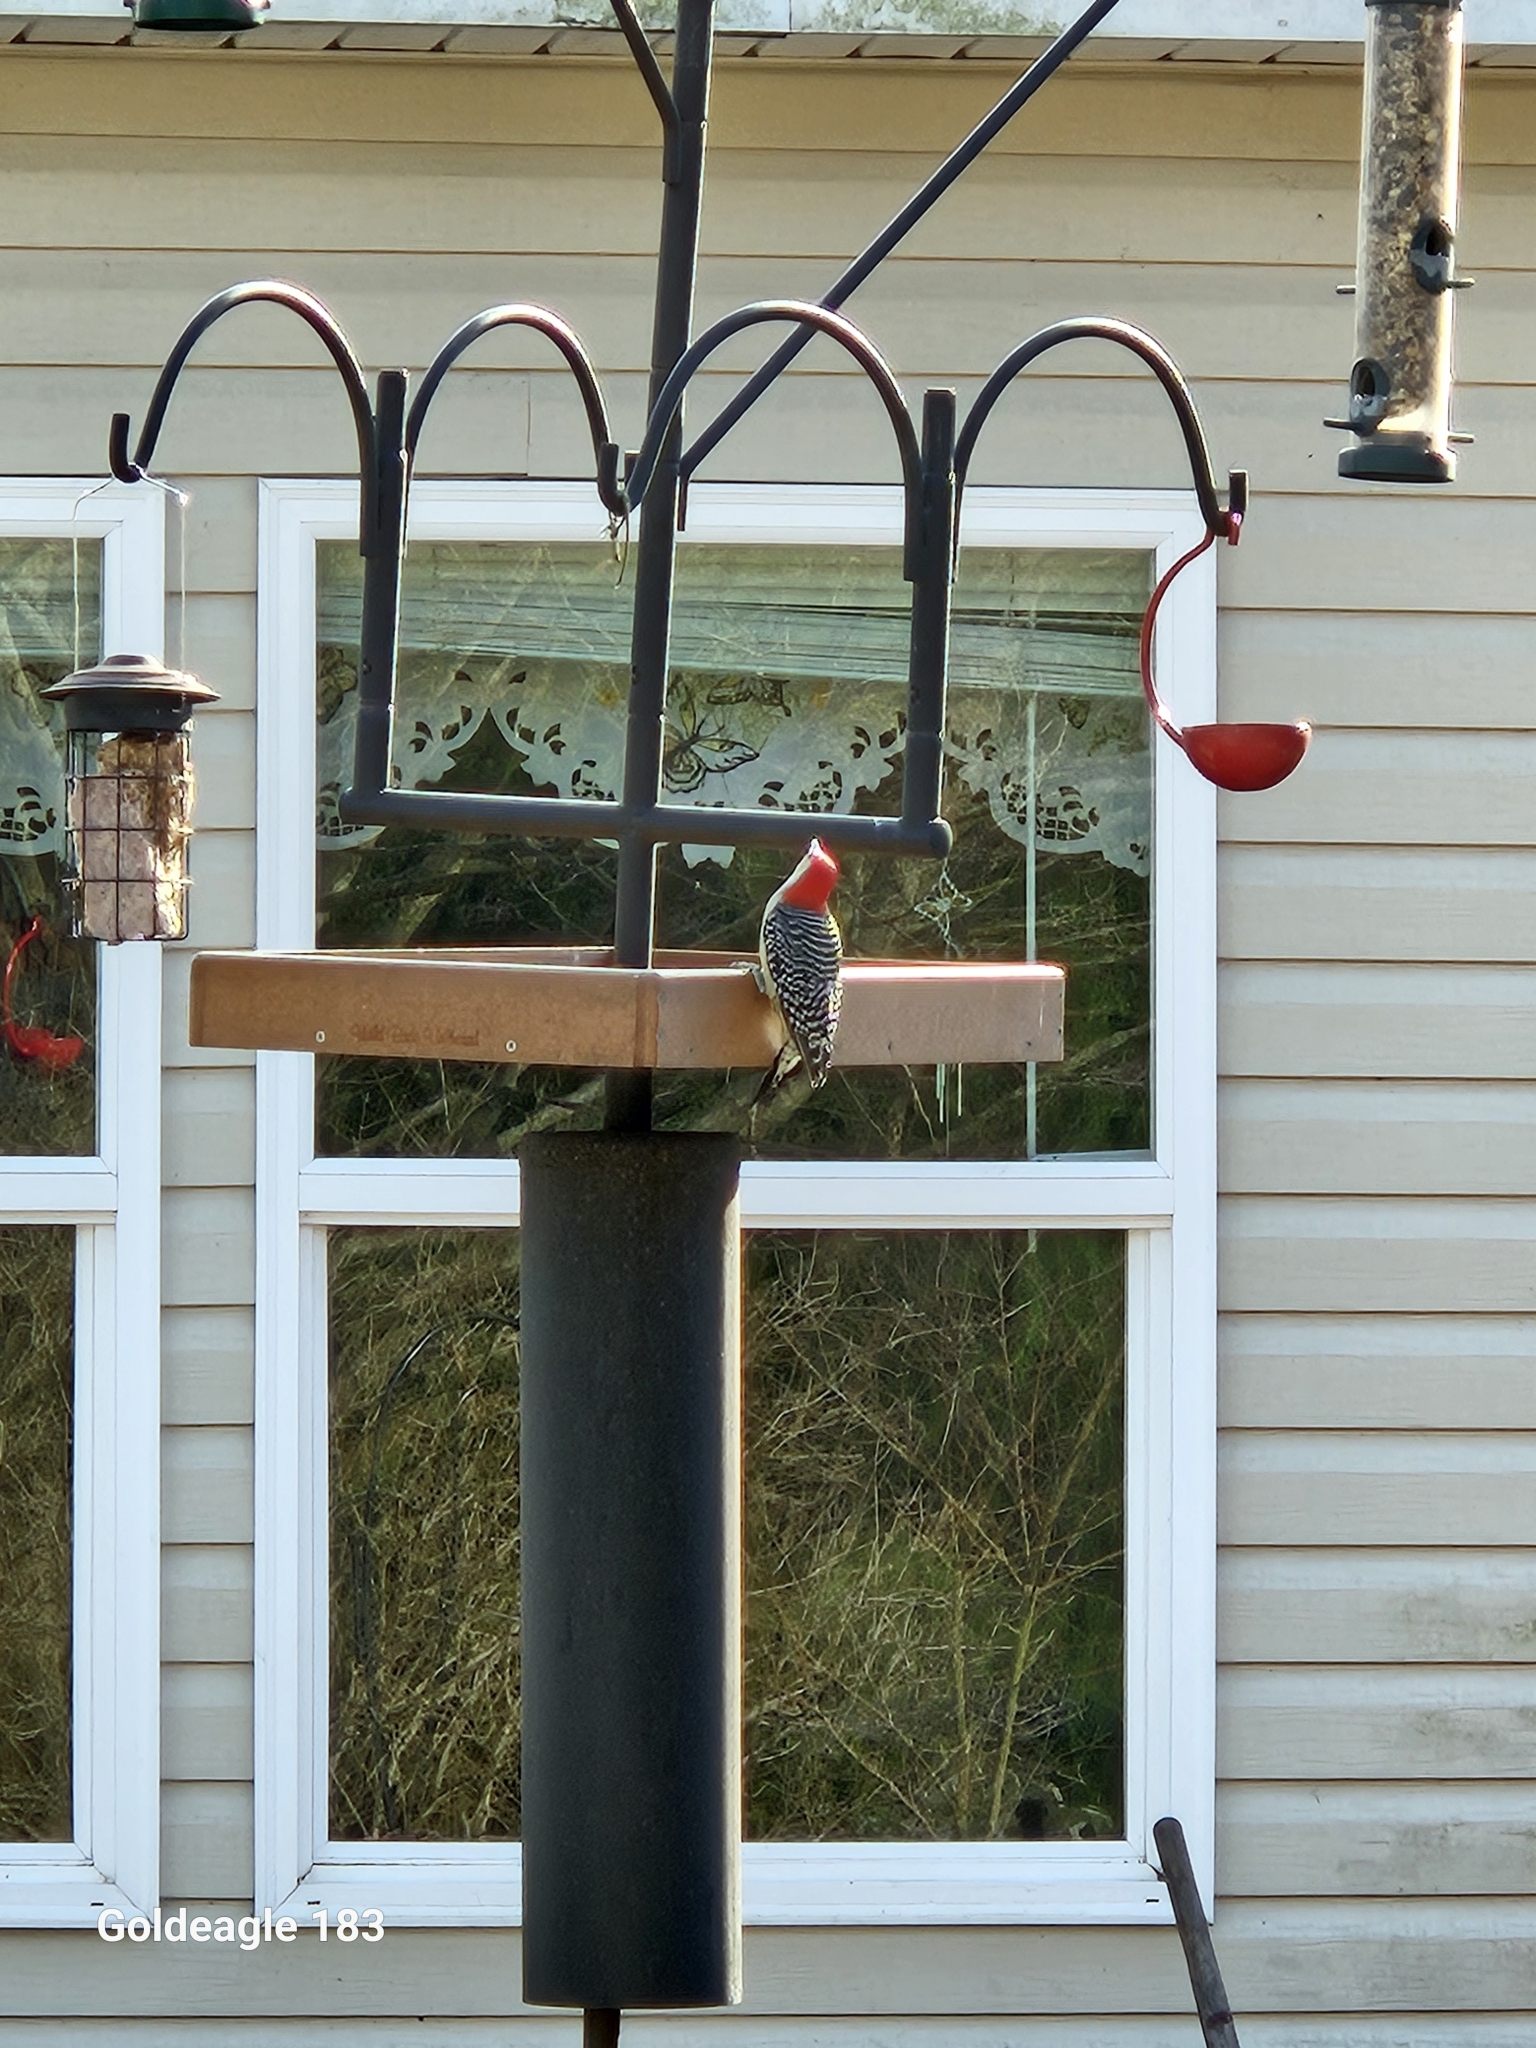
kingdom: Animalia
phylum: Chordata
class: Aves
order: Piciformes
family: Picidae
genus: Melanerpes
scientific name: Melanerpes carolinus
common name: Red-bellied woodpecker
